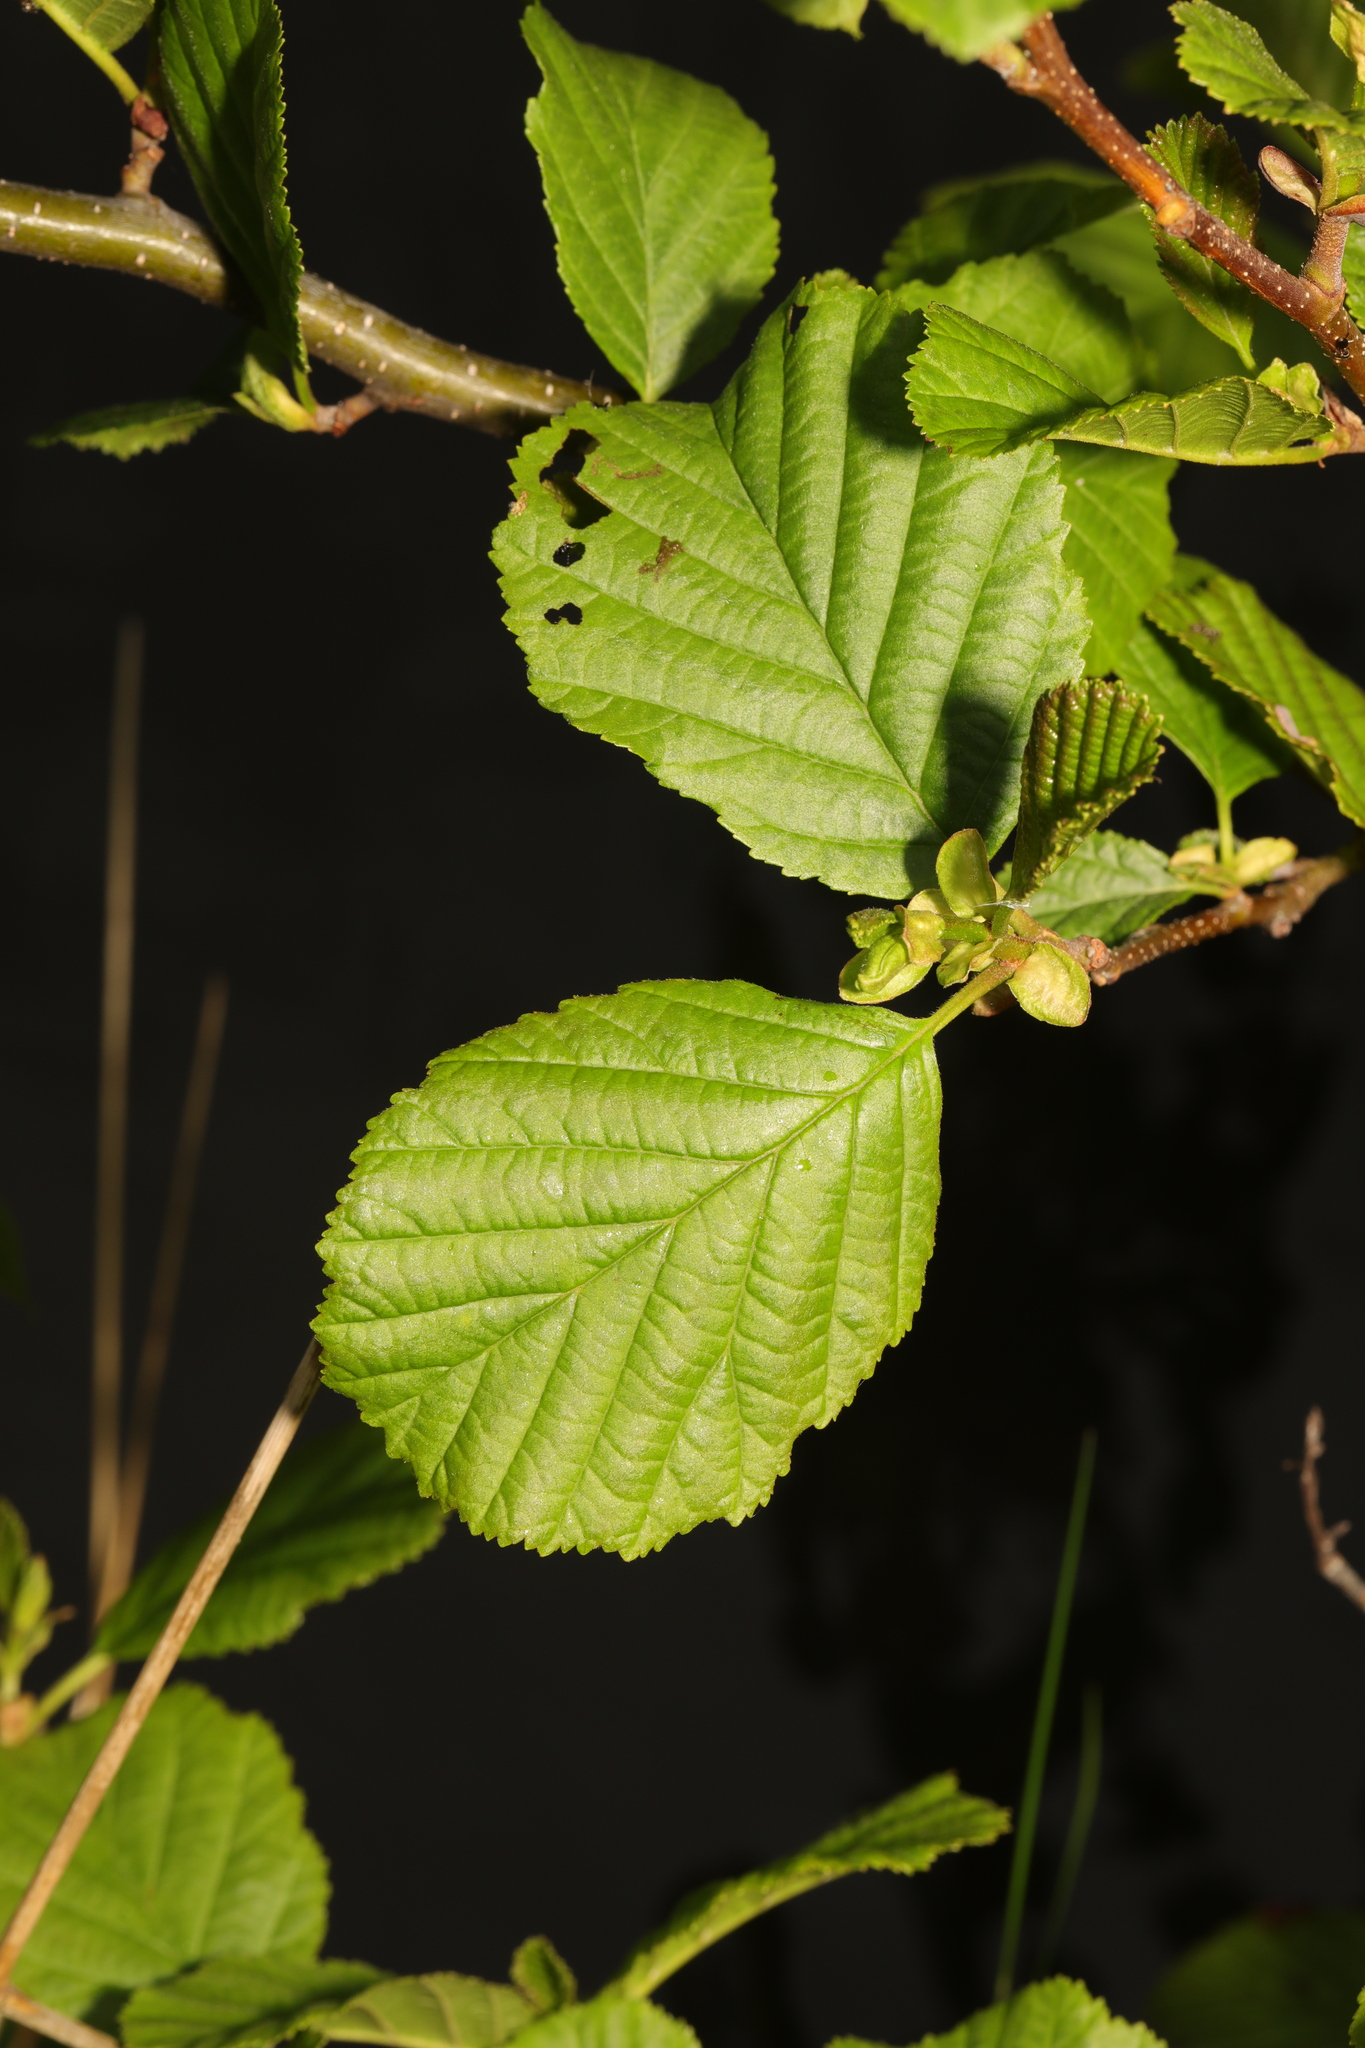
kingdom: Plantae
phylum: Tracheophyta
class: Magnoliopsida
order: Fagales
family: Betulaceae
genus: Alnus
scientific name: Alnus glutinosa
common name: Black alder
